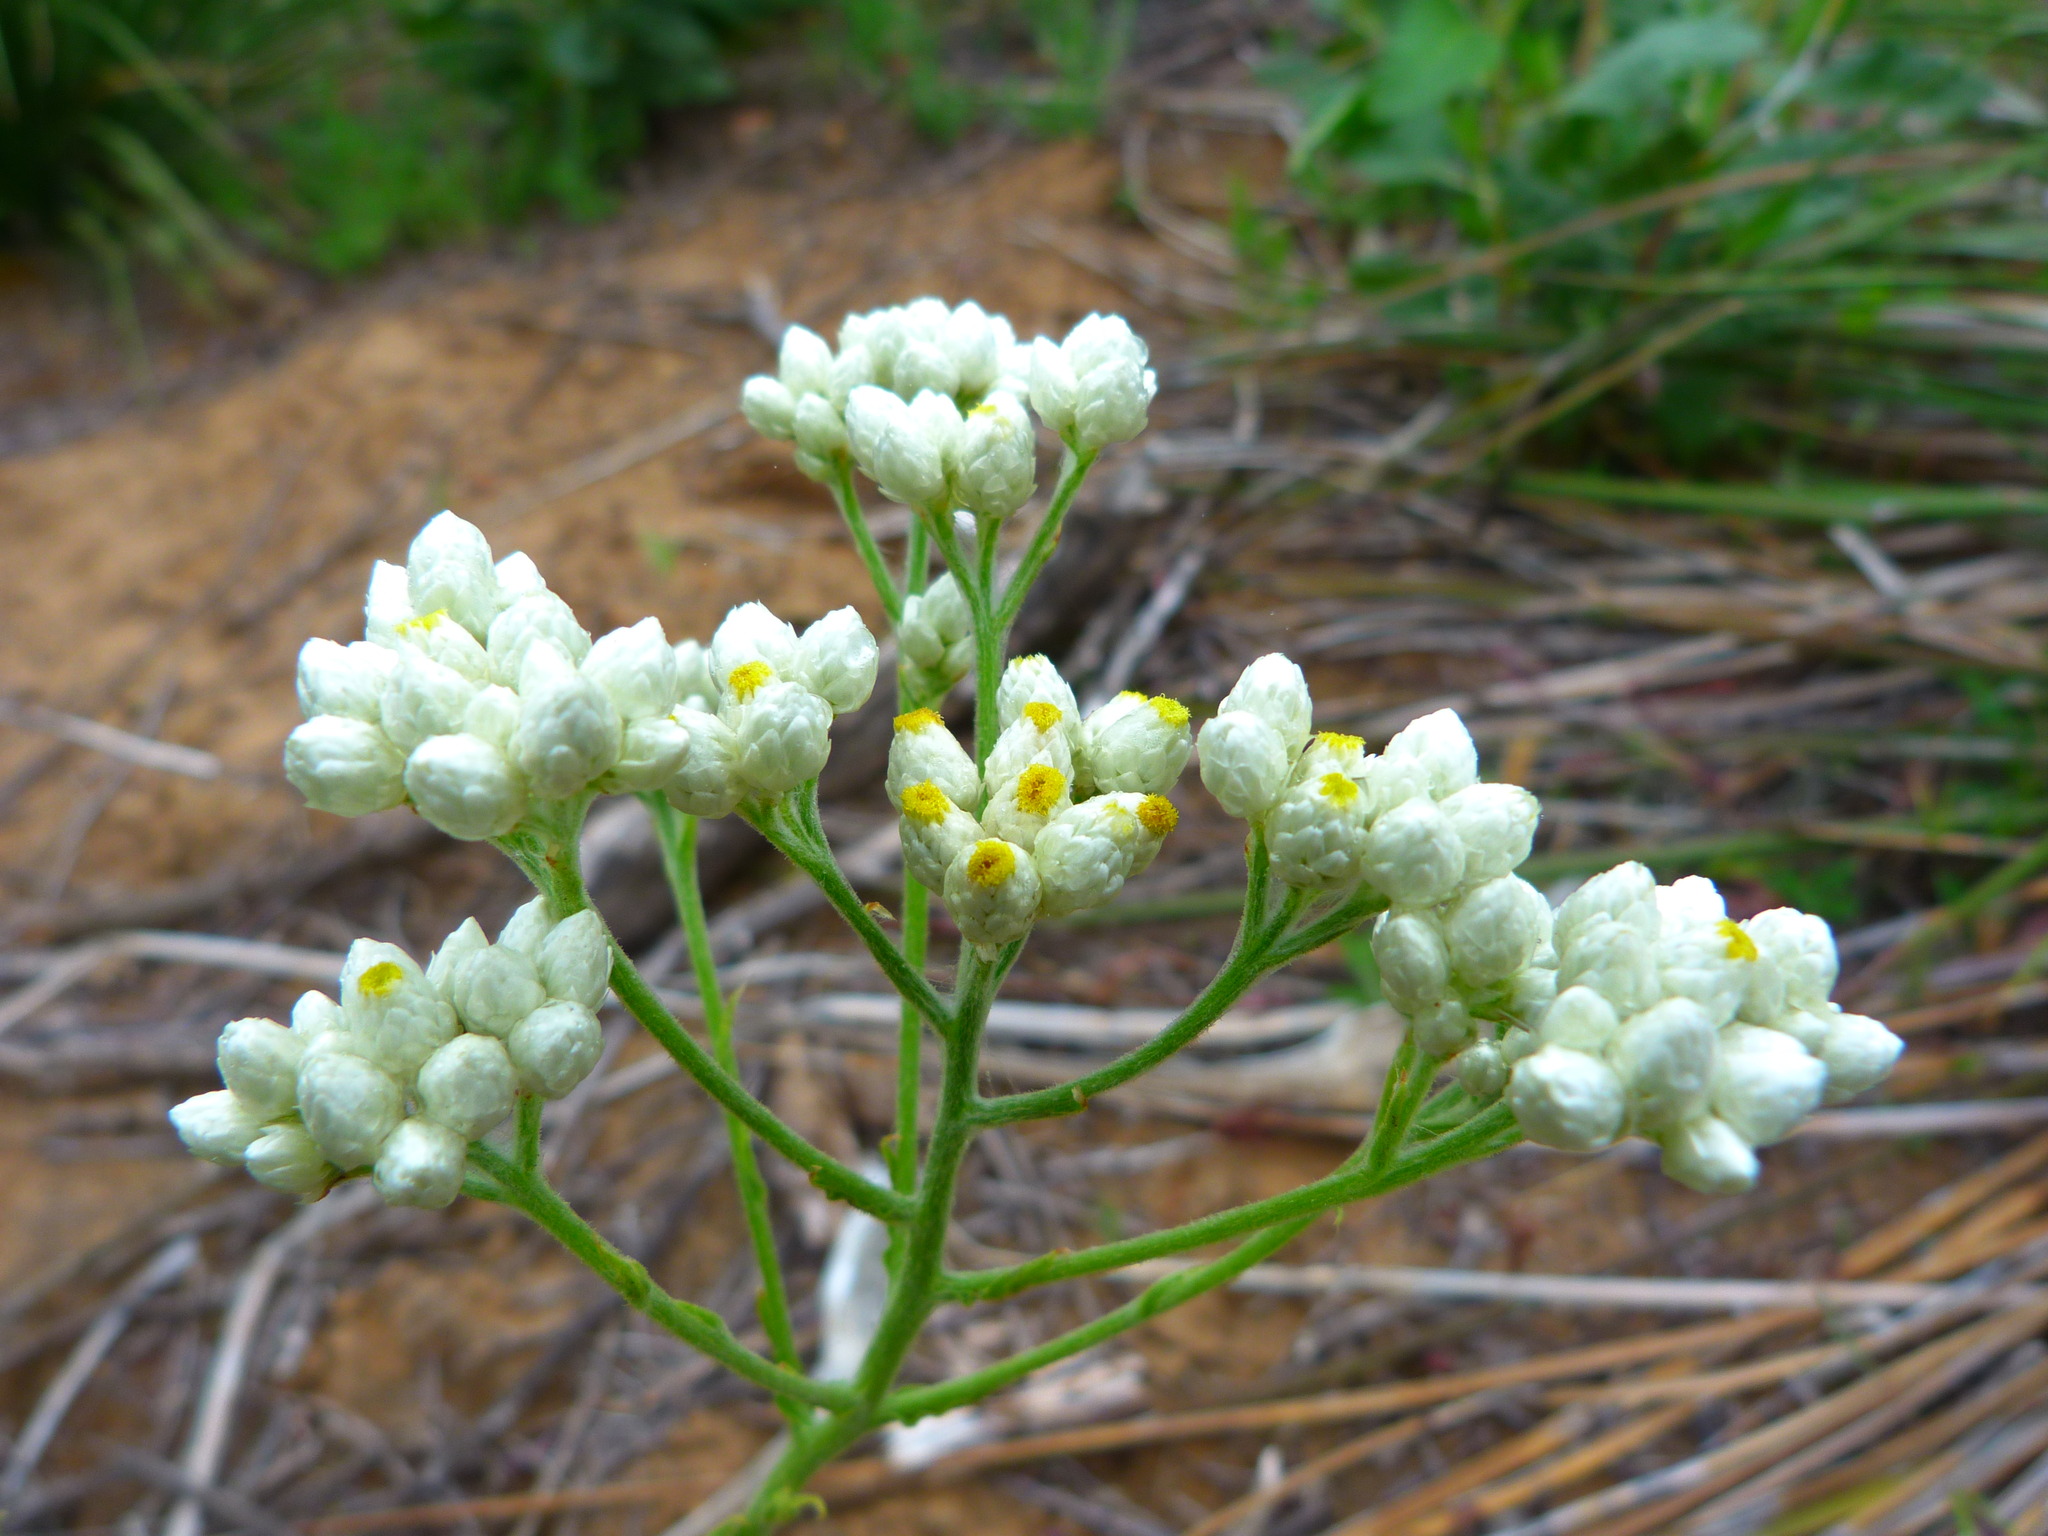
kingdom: Plantae
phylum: Tracheophyta
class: Magnoliopsida
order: Asterales
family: Asteraceae
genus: Pseudognaphalium
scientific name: Pseudognaphalium californicum
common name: California rabbit-tobacco
